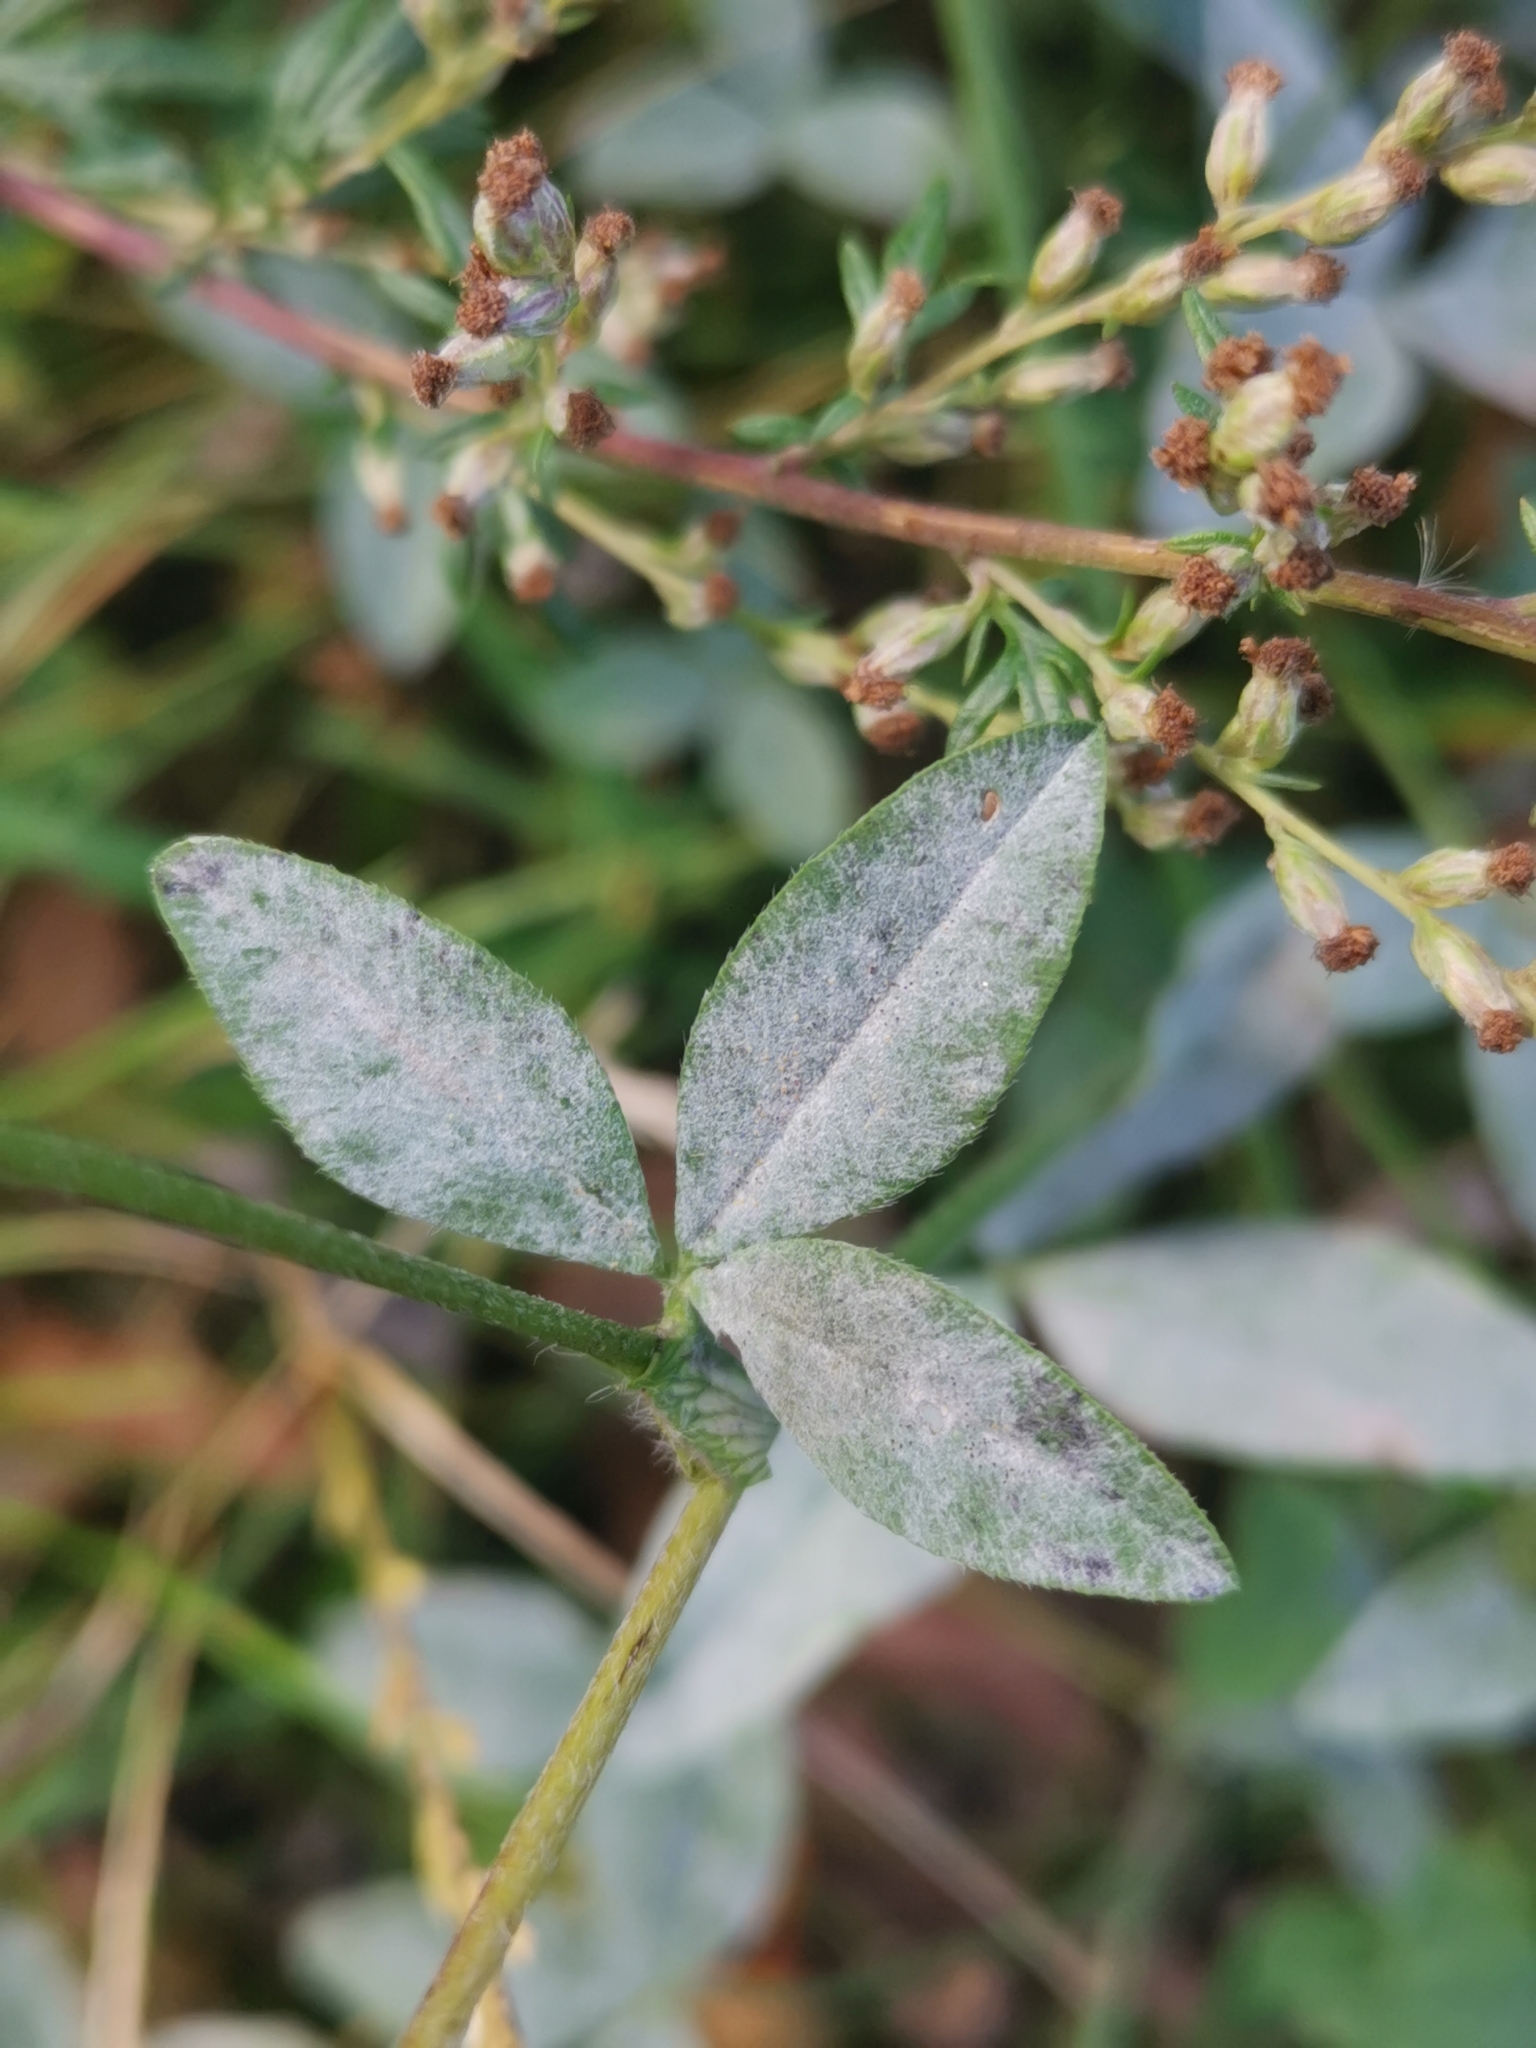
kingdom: Fungi
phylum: Ascomycota
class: Leotiomycetes
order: Helotiales
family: Erysiphaceae
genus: Erysiphe
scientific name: Erysiphe trifoliorum
